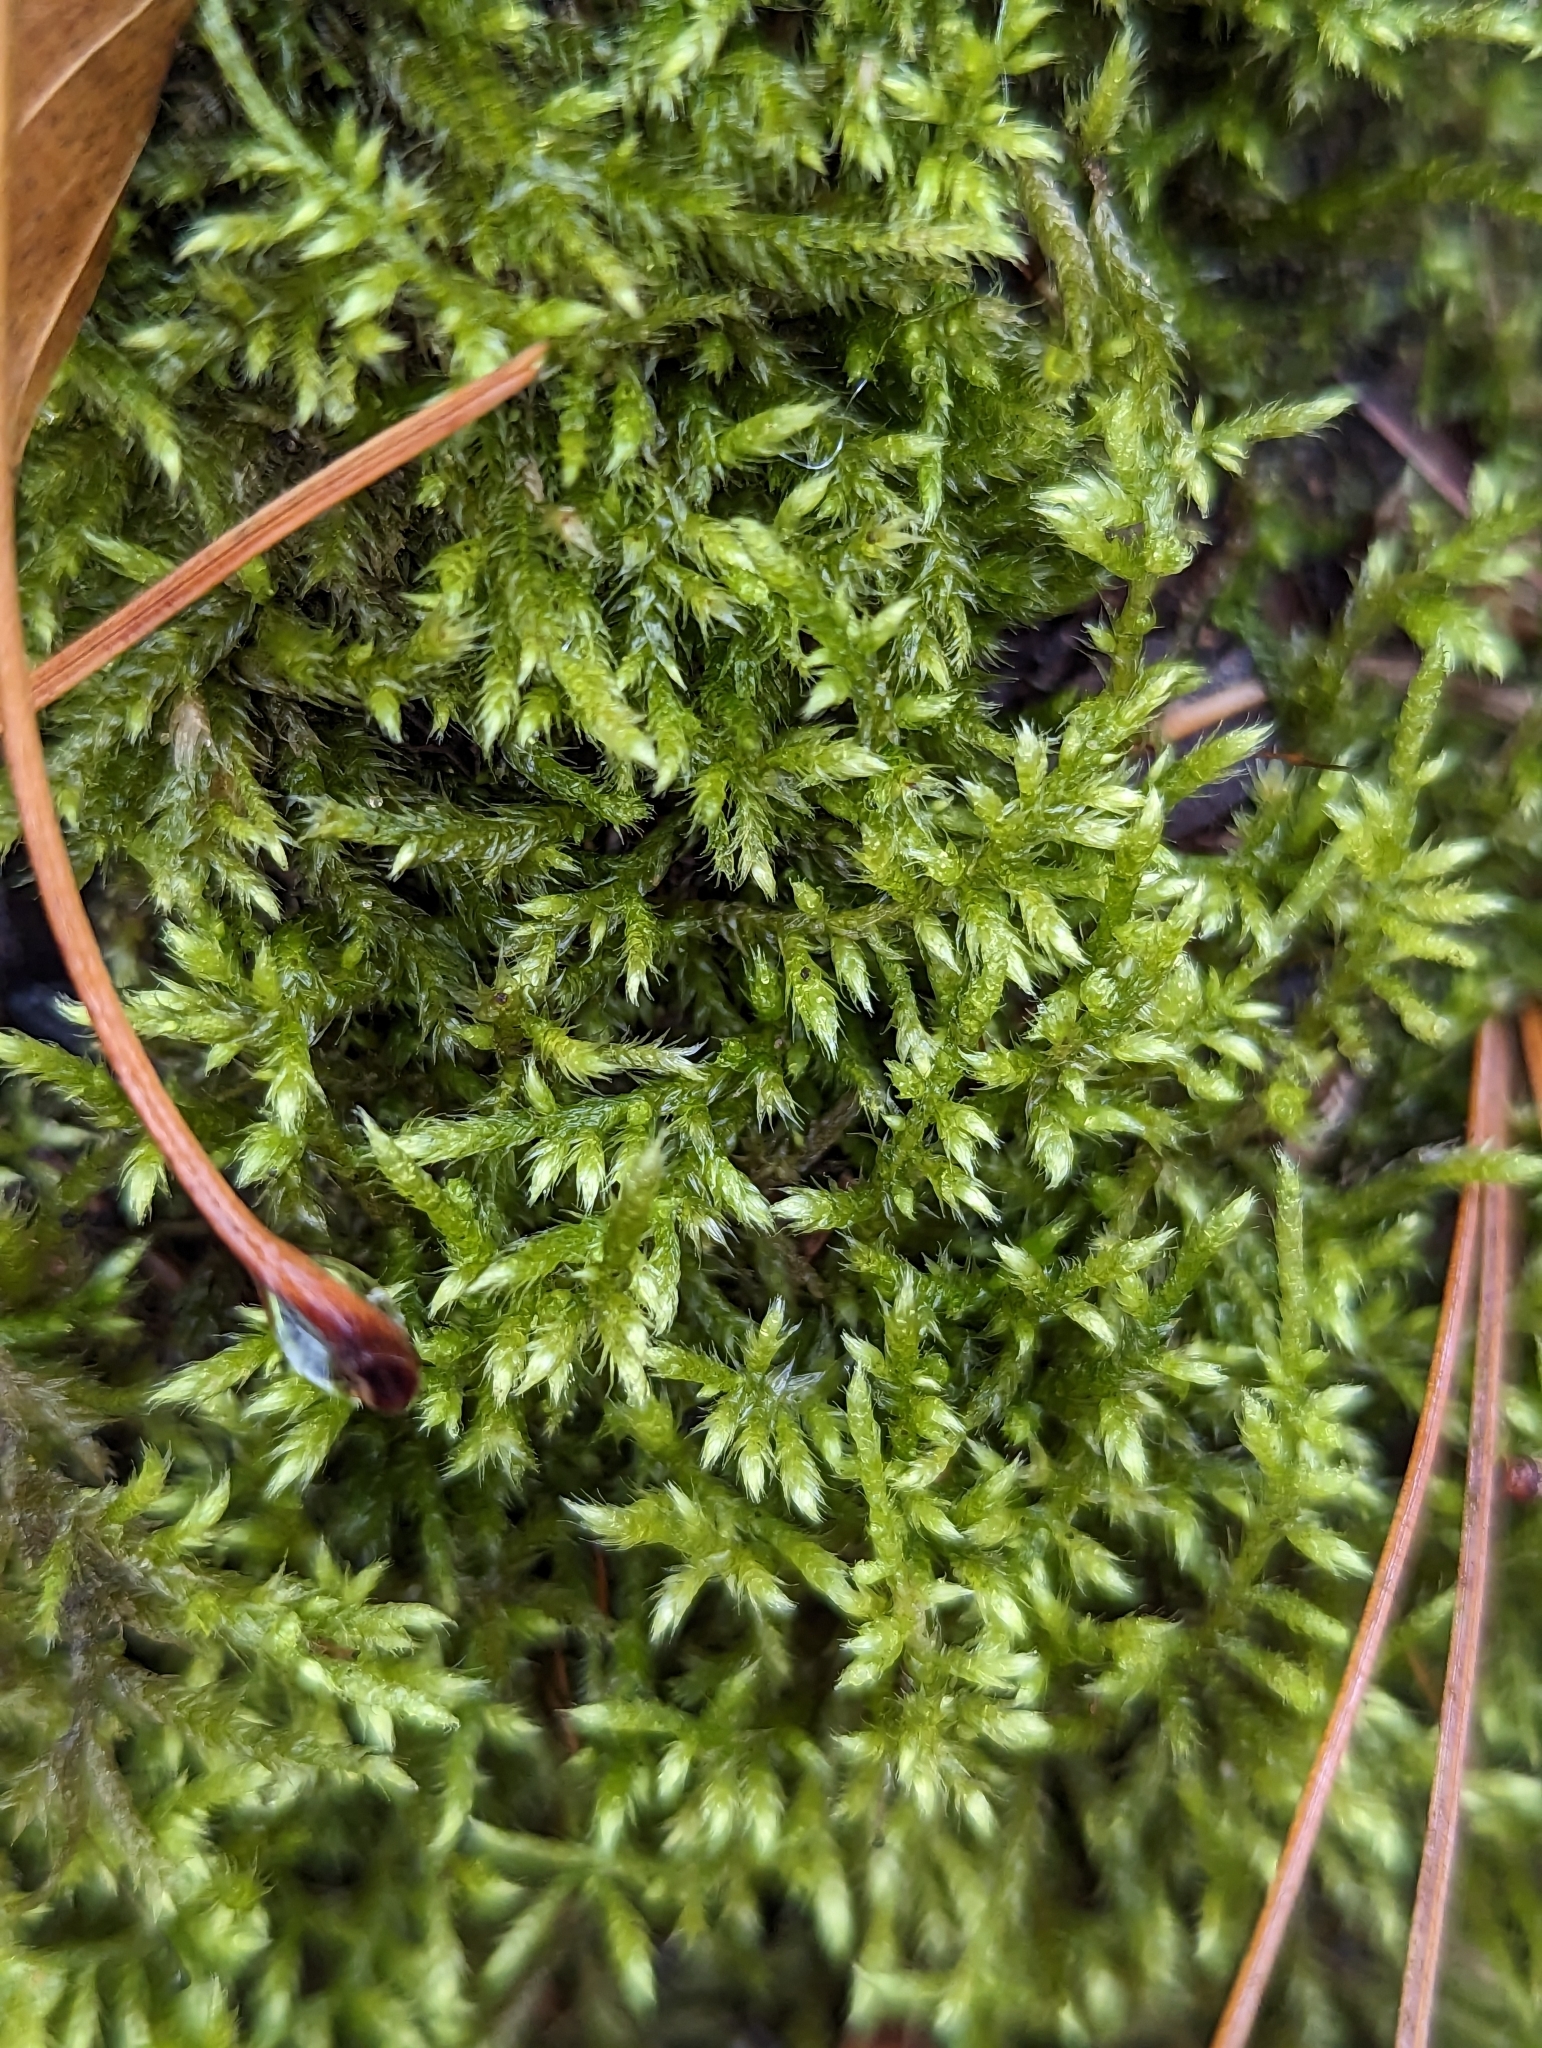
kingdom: Plantae
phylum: Bryophyta
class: Bryopsida
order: Hypnales
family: Callicladiaceae
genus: Callicladium
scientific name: Callicladium haldanianum
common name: Beautiful branch moss
